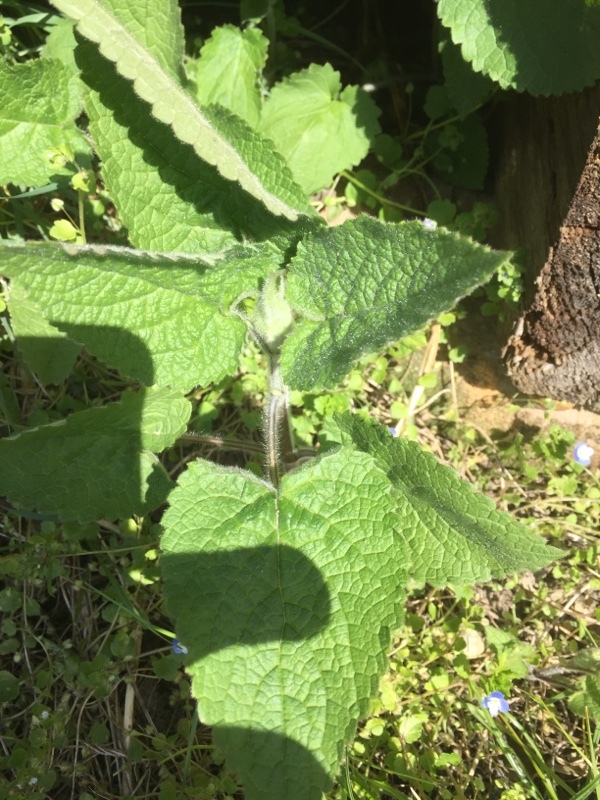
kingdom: Plantae
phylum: Tracheophyta
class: Magnoliopsida
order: Lamiales
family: Lamiaceae
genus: Stachys
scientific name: Stachys sylvatica
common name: Hedge woundwort
